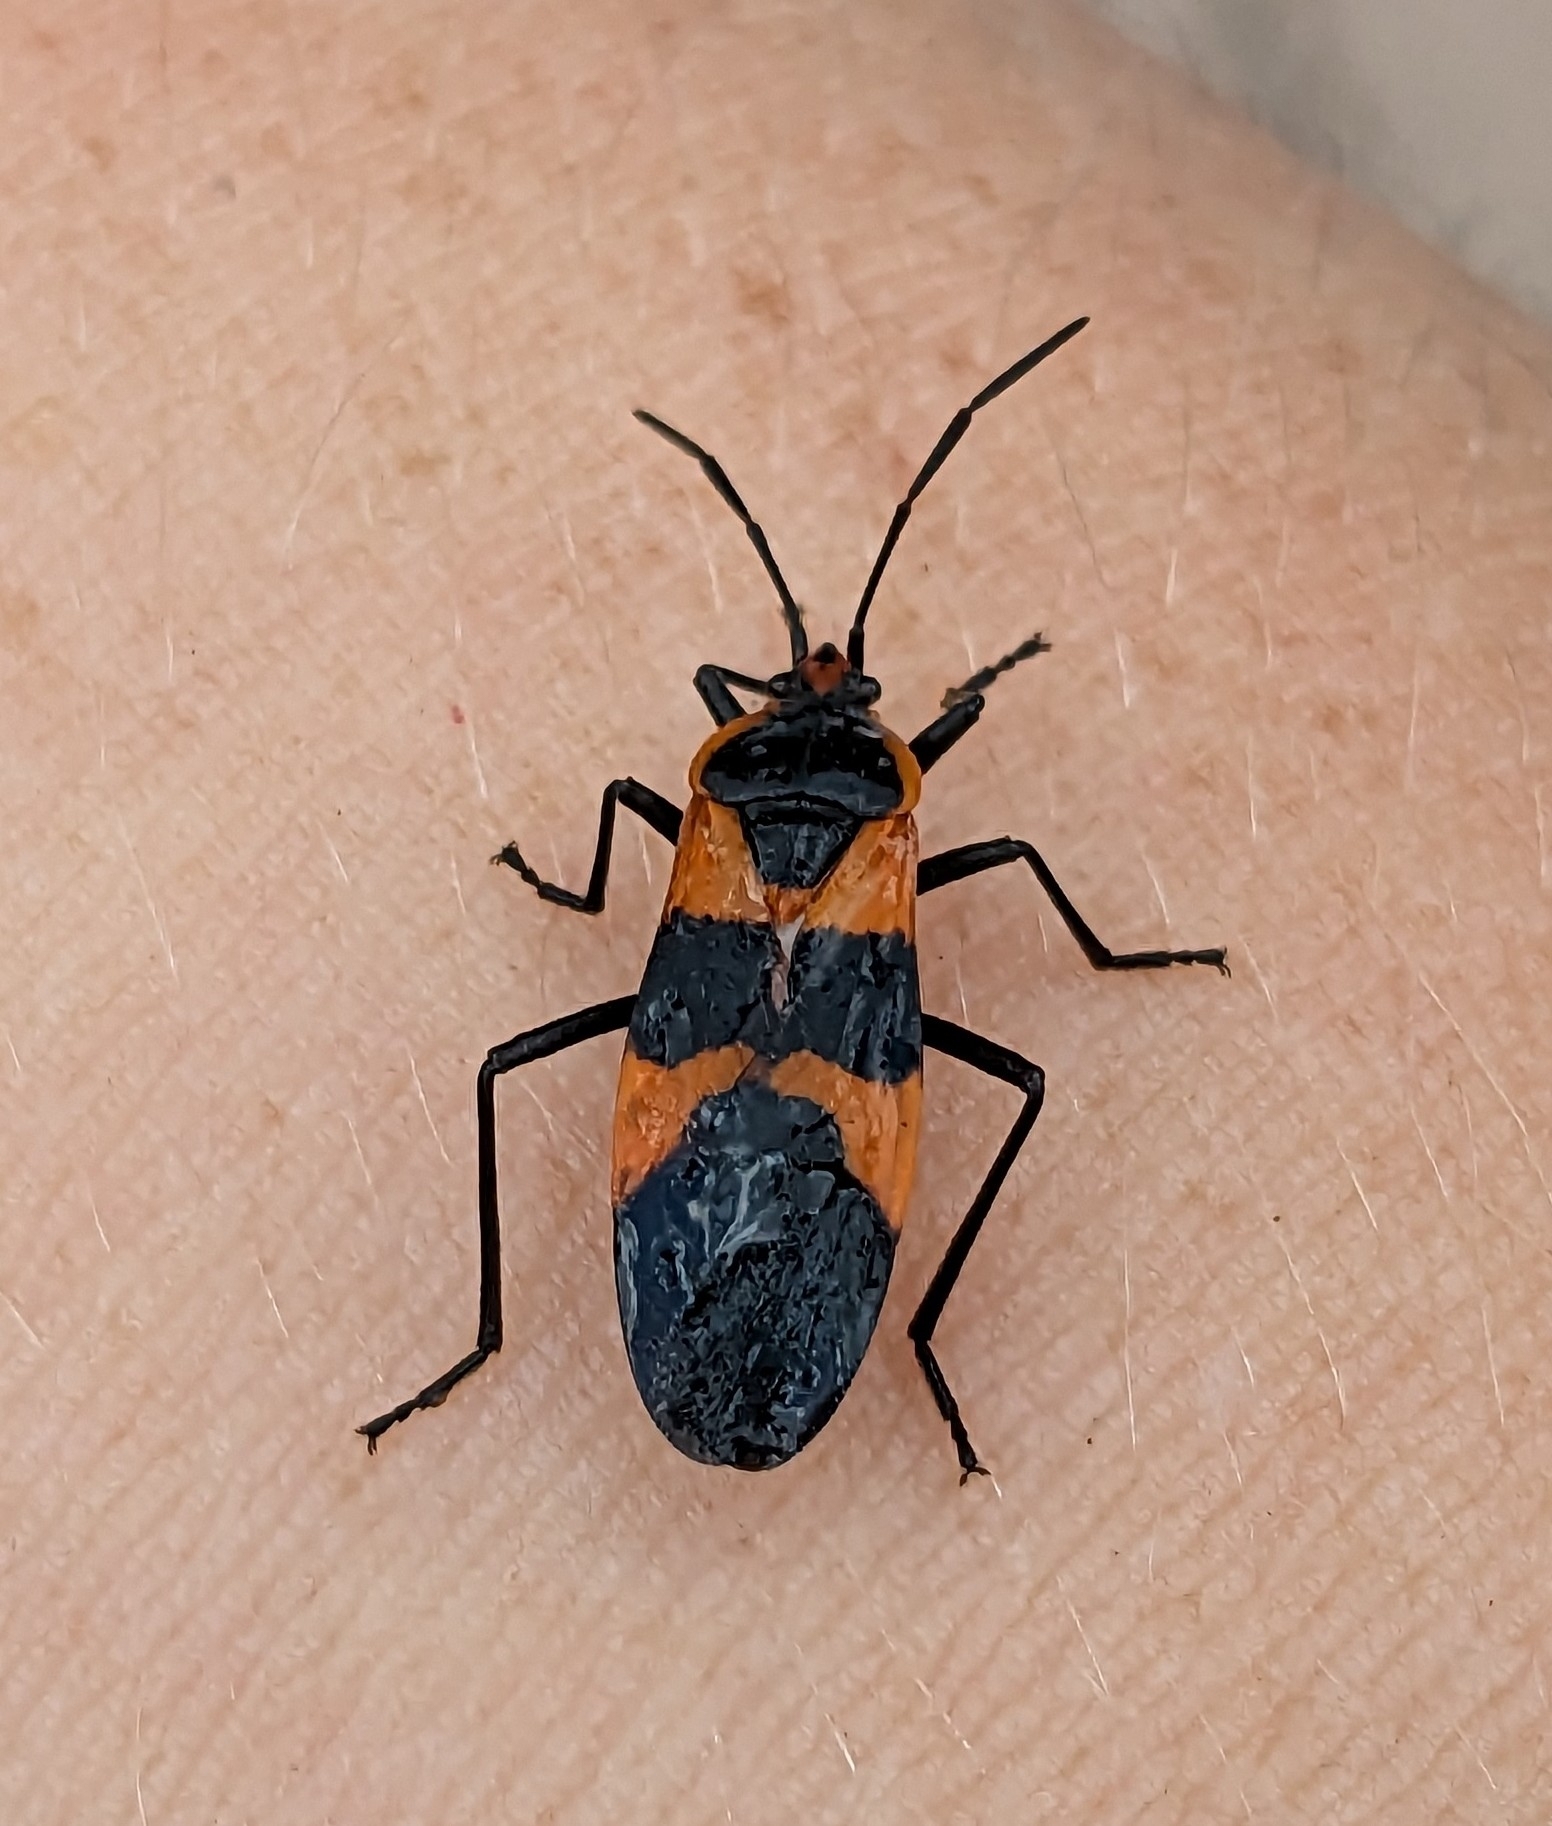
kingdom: Animalia
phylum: Arthropoda
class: Insecta
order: Hemiptera
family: Lygaeidae
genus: Oncopeltus
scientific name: Oncopeltus fasciatus
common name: Large milkweed bug
